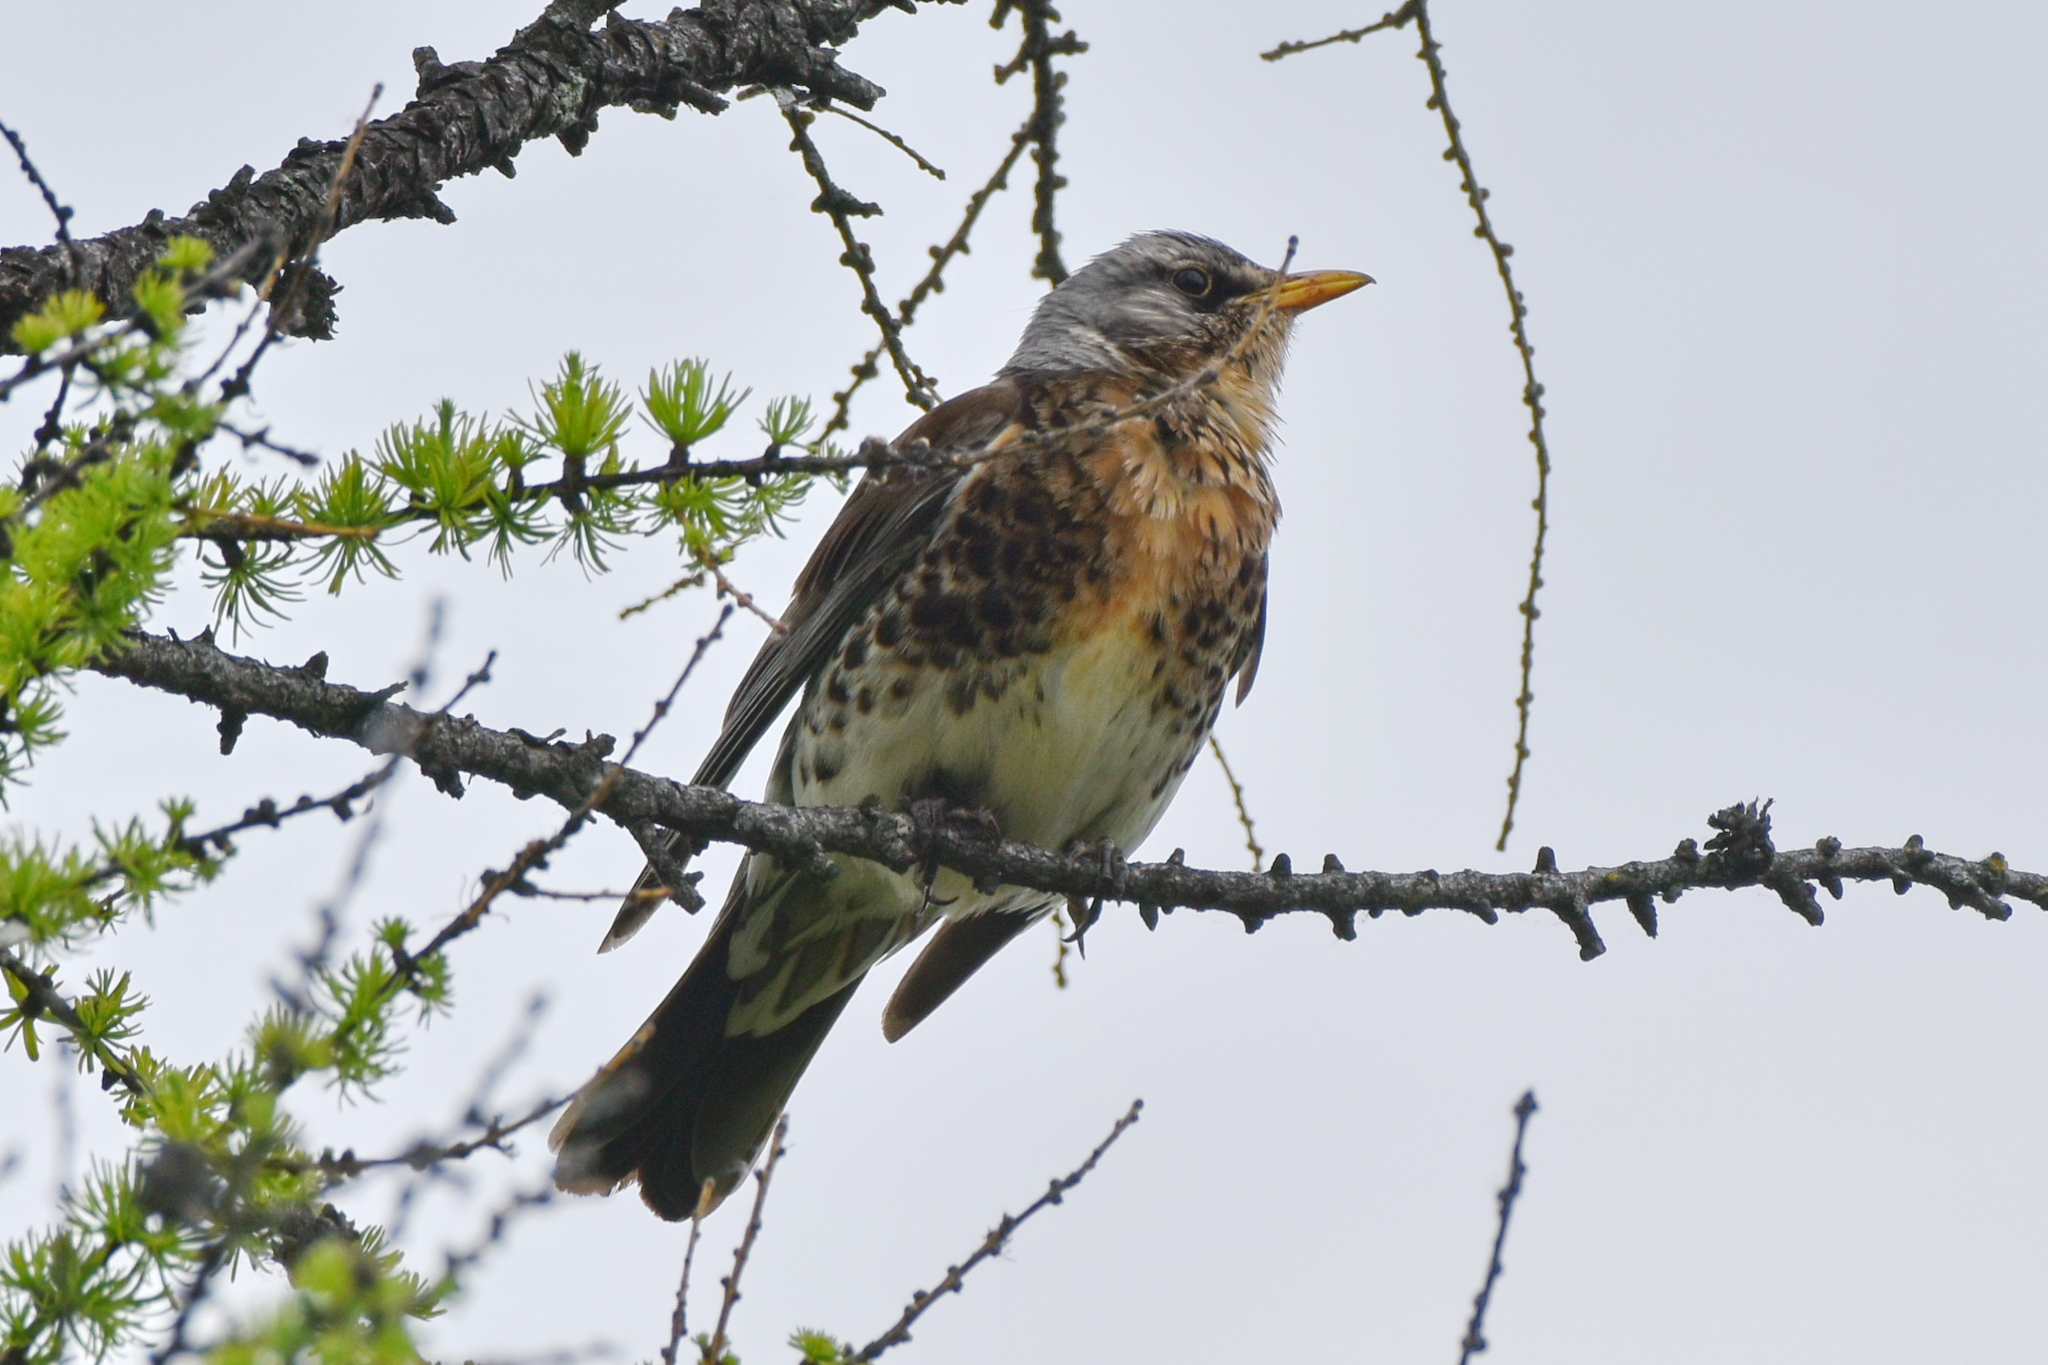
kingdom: Animalia
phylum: Chordata
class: Aves
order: Passeriformes
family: Turdidae
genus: Turdus
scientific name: Turdus pilaris
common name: Fieldfare
